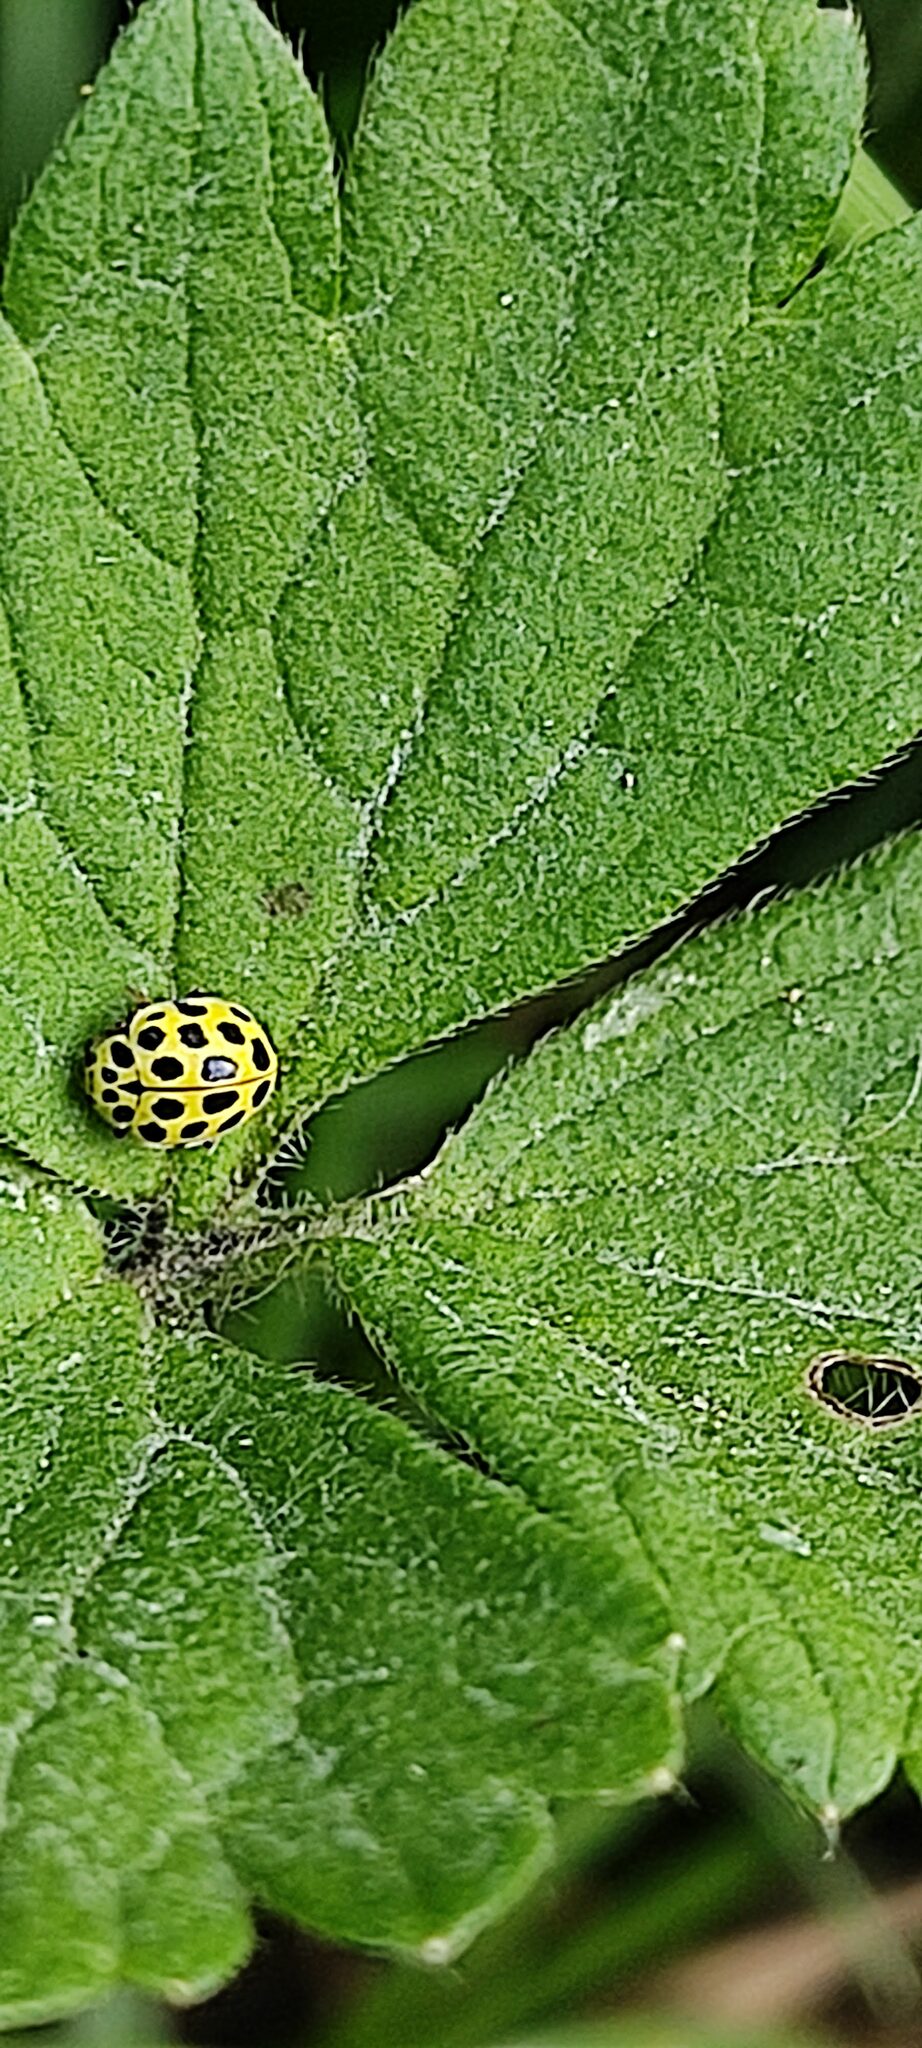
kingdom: Animalia
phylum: Arthropoda
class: Insecta
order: Coleoptera
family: Coccinellidae
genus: Psyllobora
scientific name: Psyllobora vigintiduopunctata
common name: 22-spot ladybird
